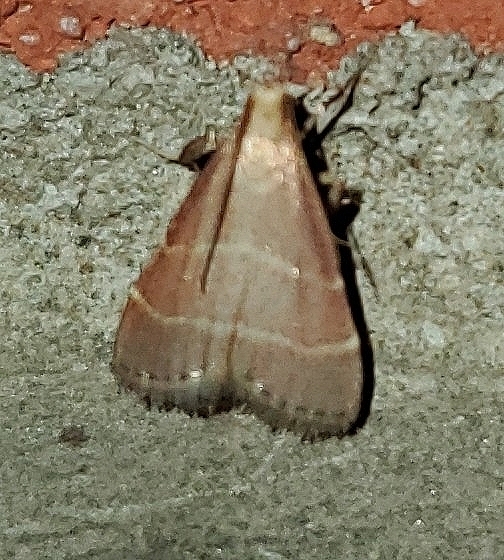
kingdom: Animalia
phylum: Arthropoda
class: Insecta
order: Lepidoptera
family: Pyralidae
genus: Arta
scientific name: Arta statalis
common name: Posturing arta moth
